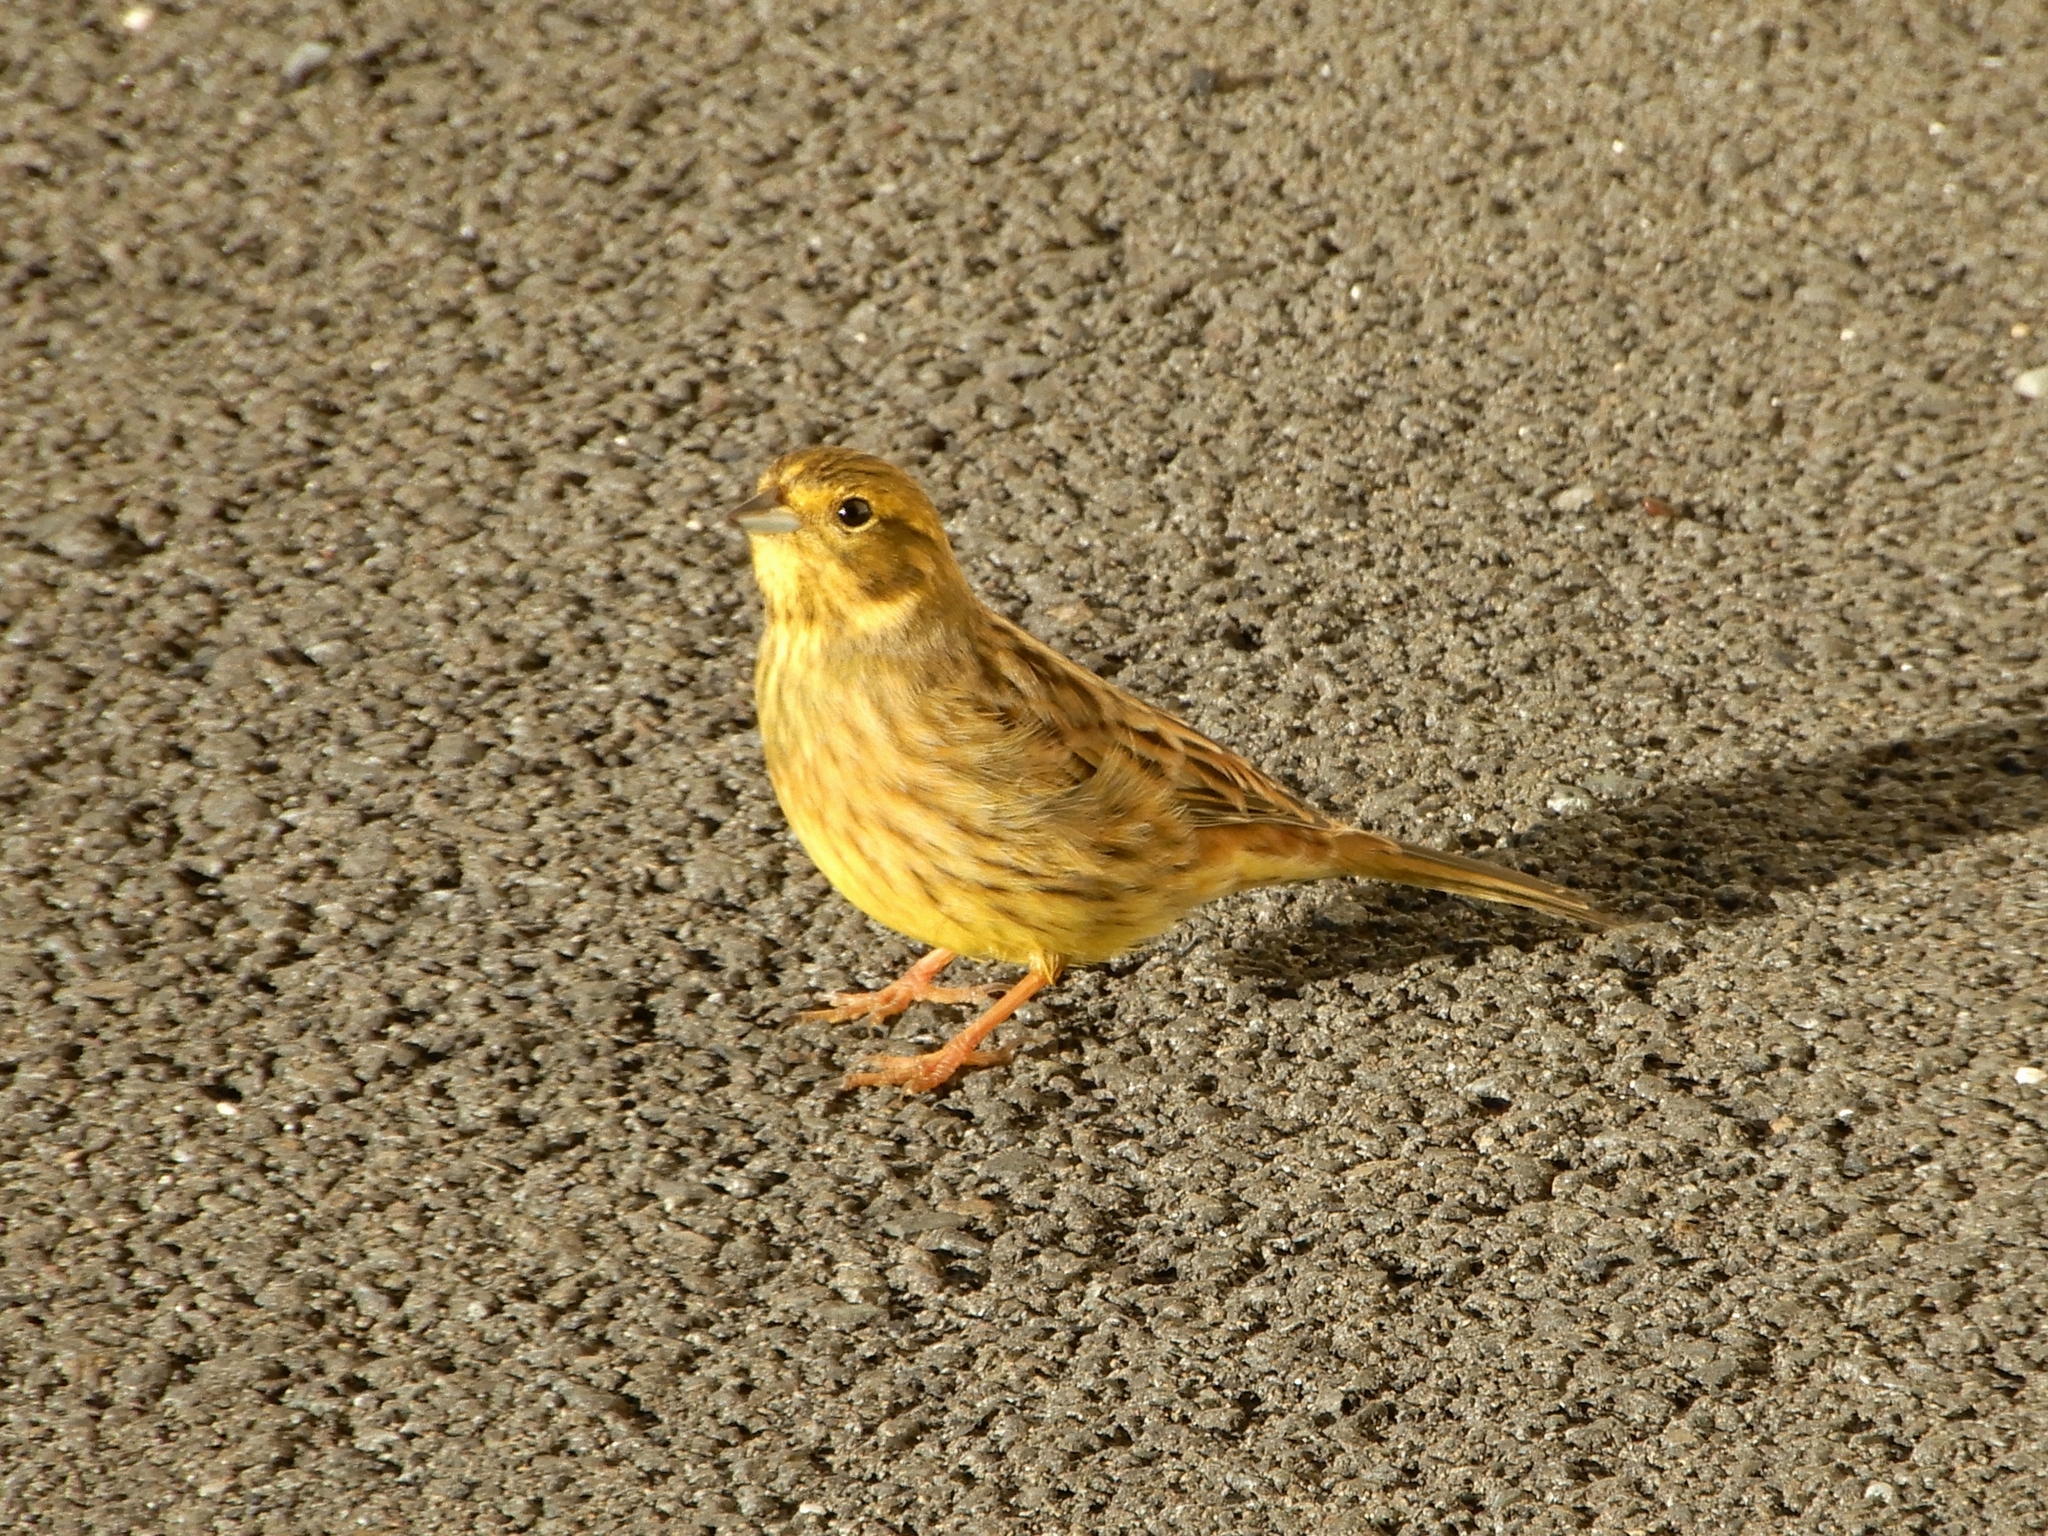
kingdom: Animalia
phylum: Chordata
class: Aves
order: Passeriformes
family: Emberizidae
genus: Emberiza
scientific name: Emberiza citrinella
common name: Yellowhammer
